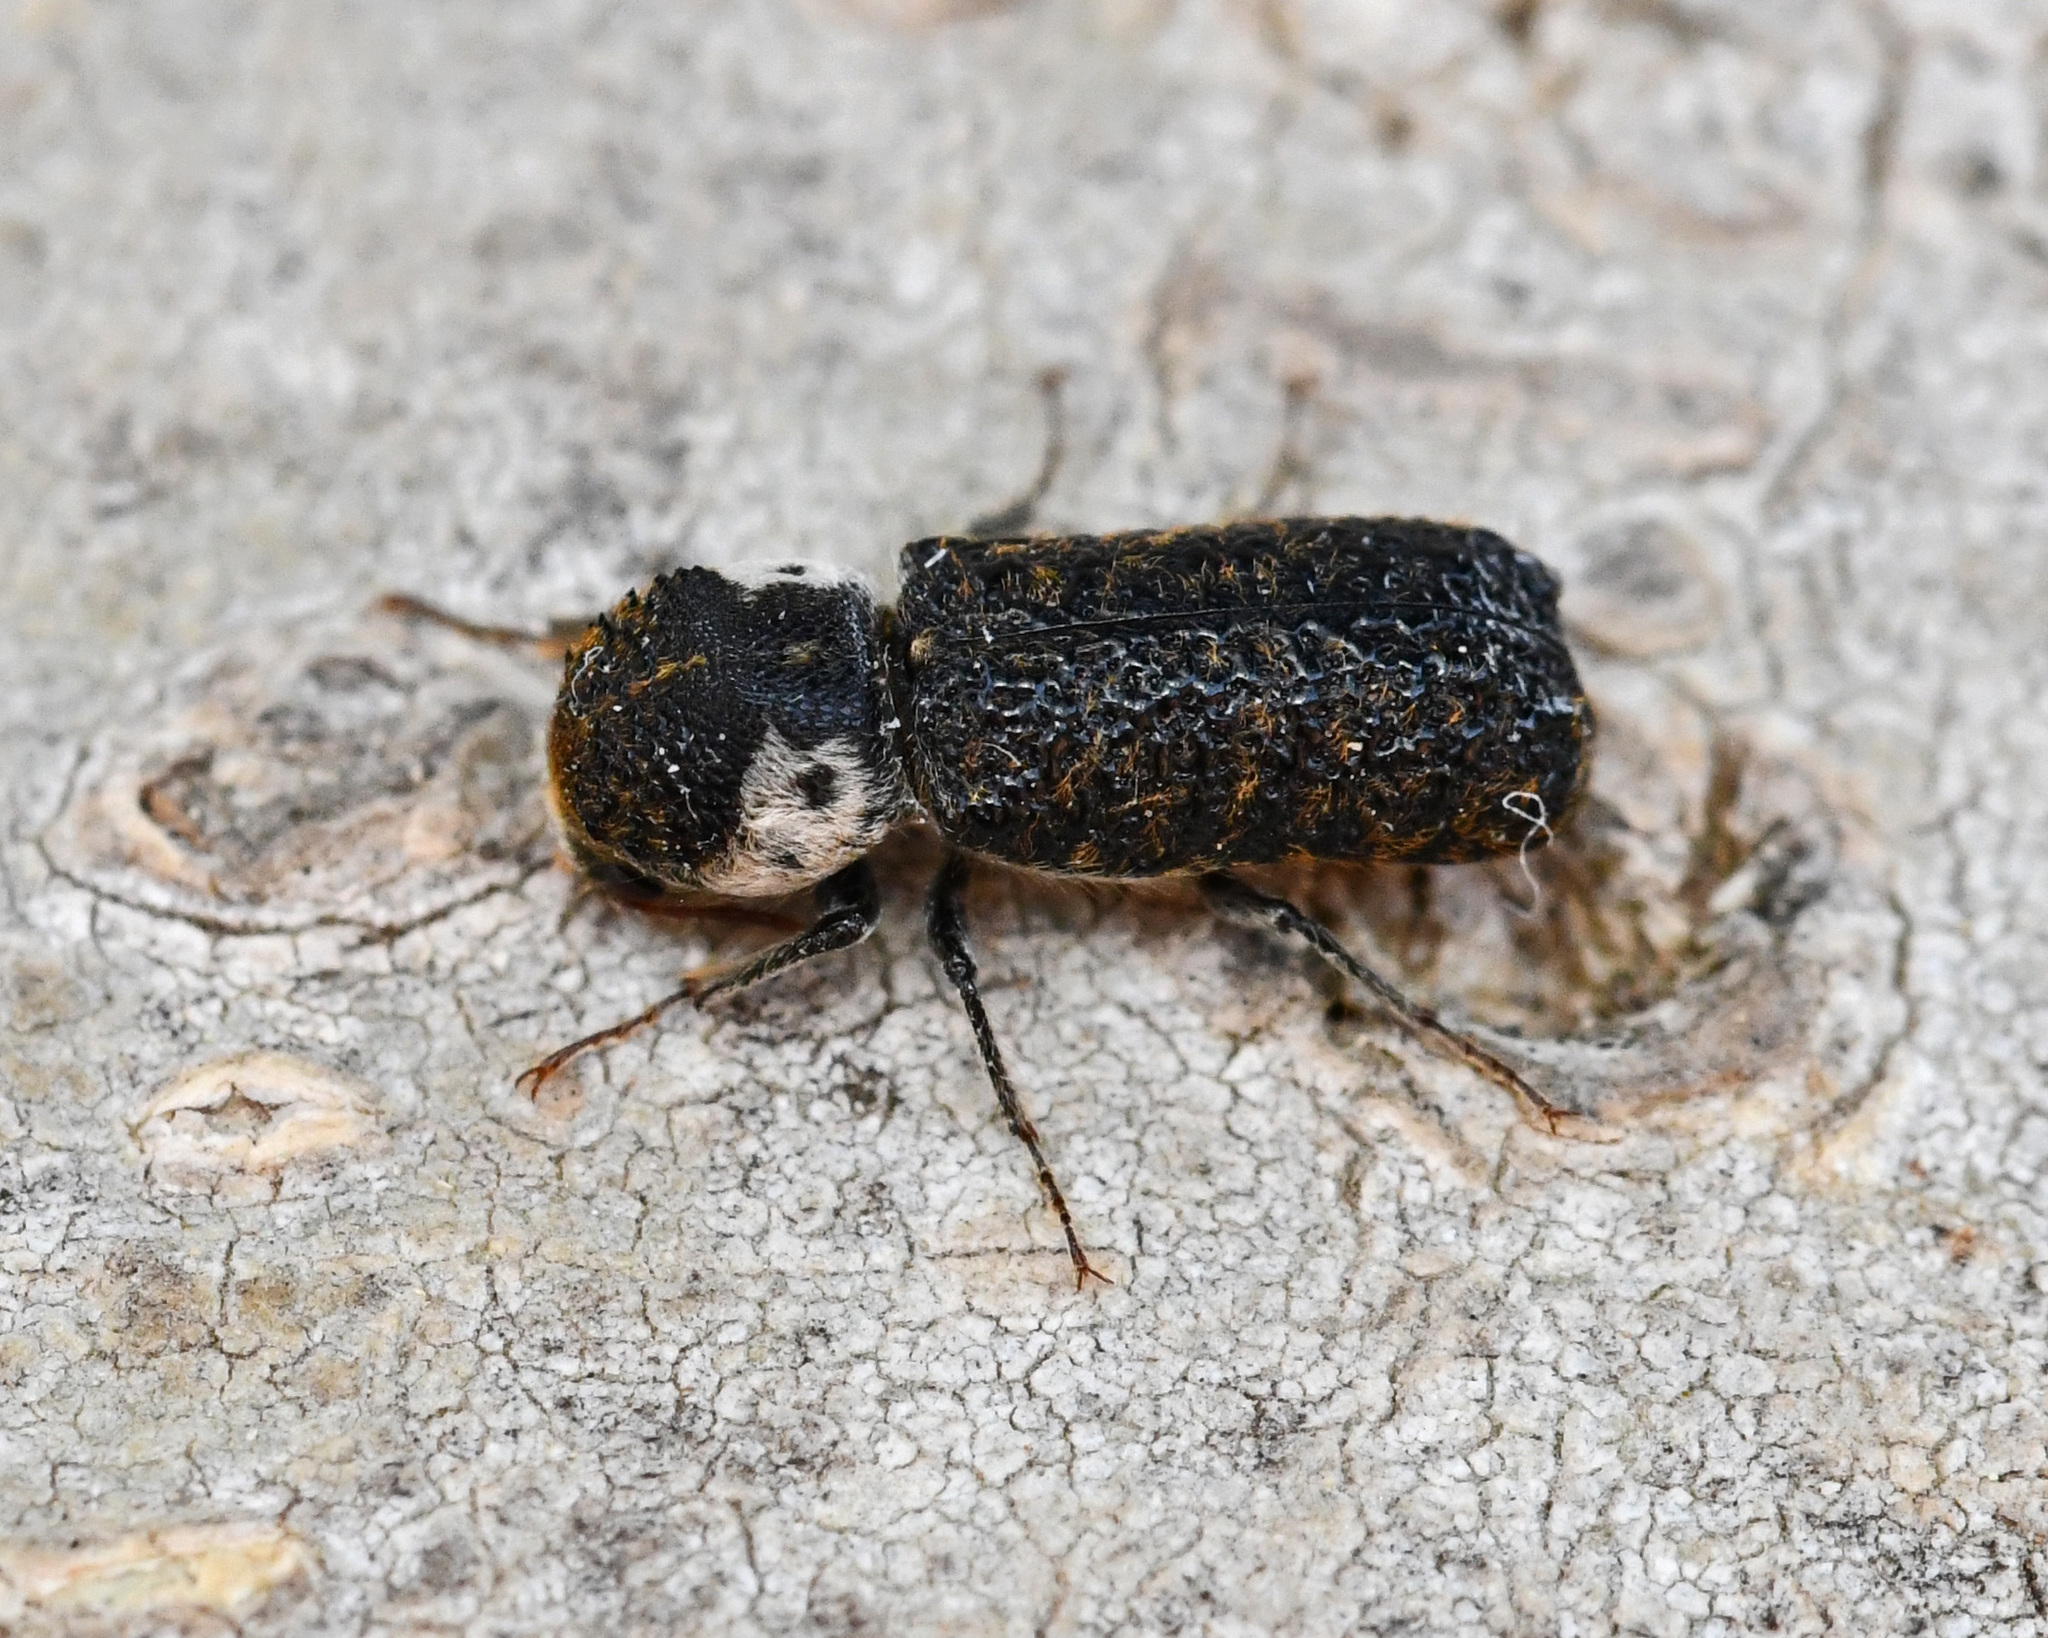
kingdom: Animalia
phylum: Arthropoda
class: Insecta
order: Coleoptera
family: Bostrichidae
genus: Amphicerus
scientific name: Amphicerus bimaculatus
